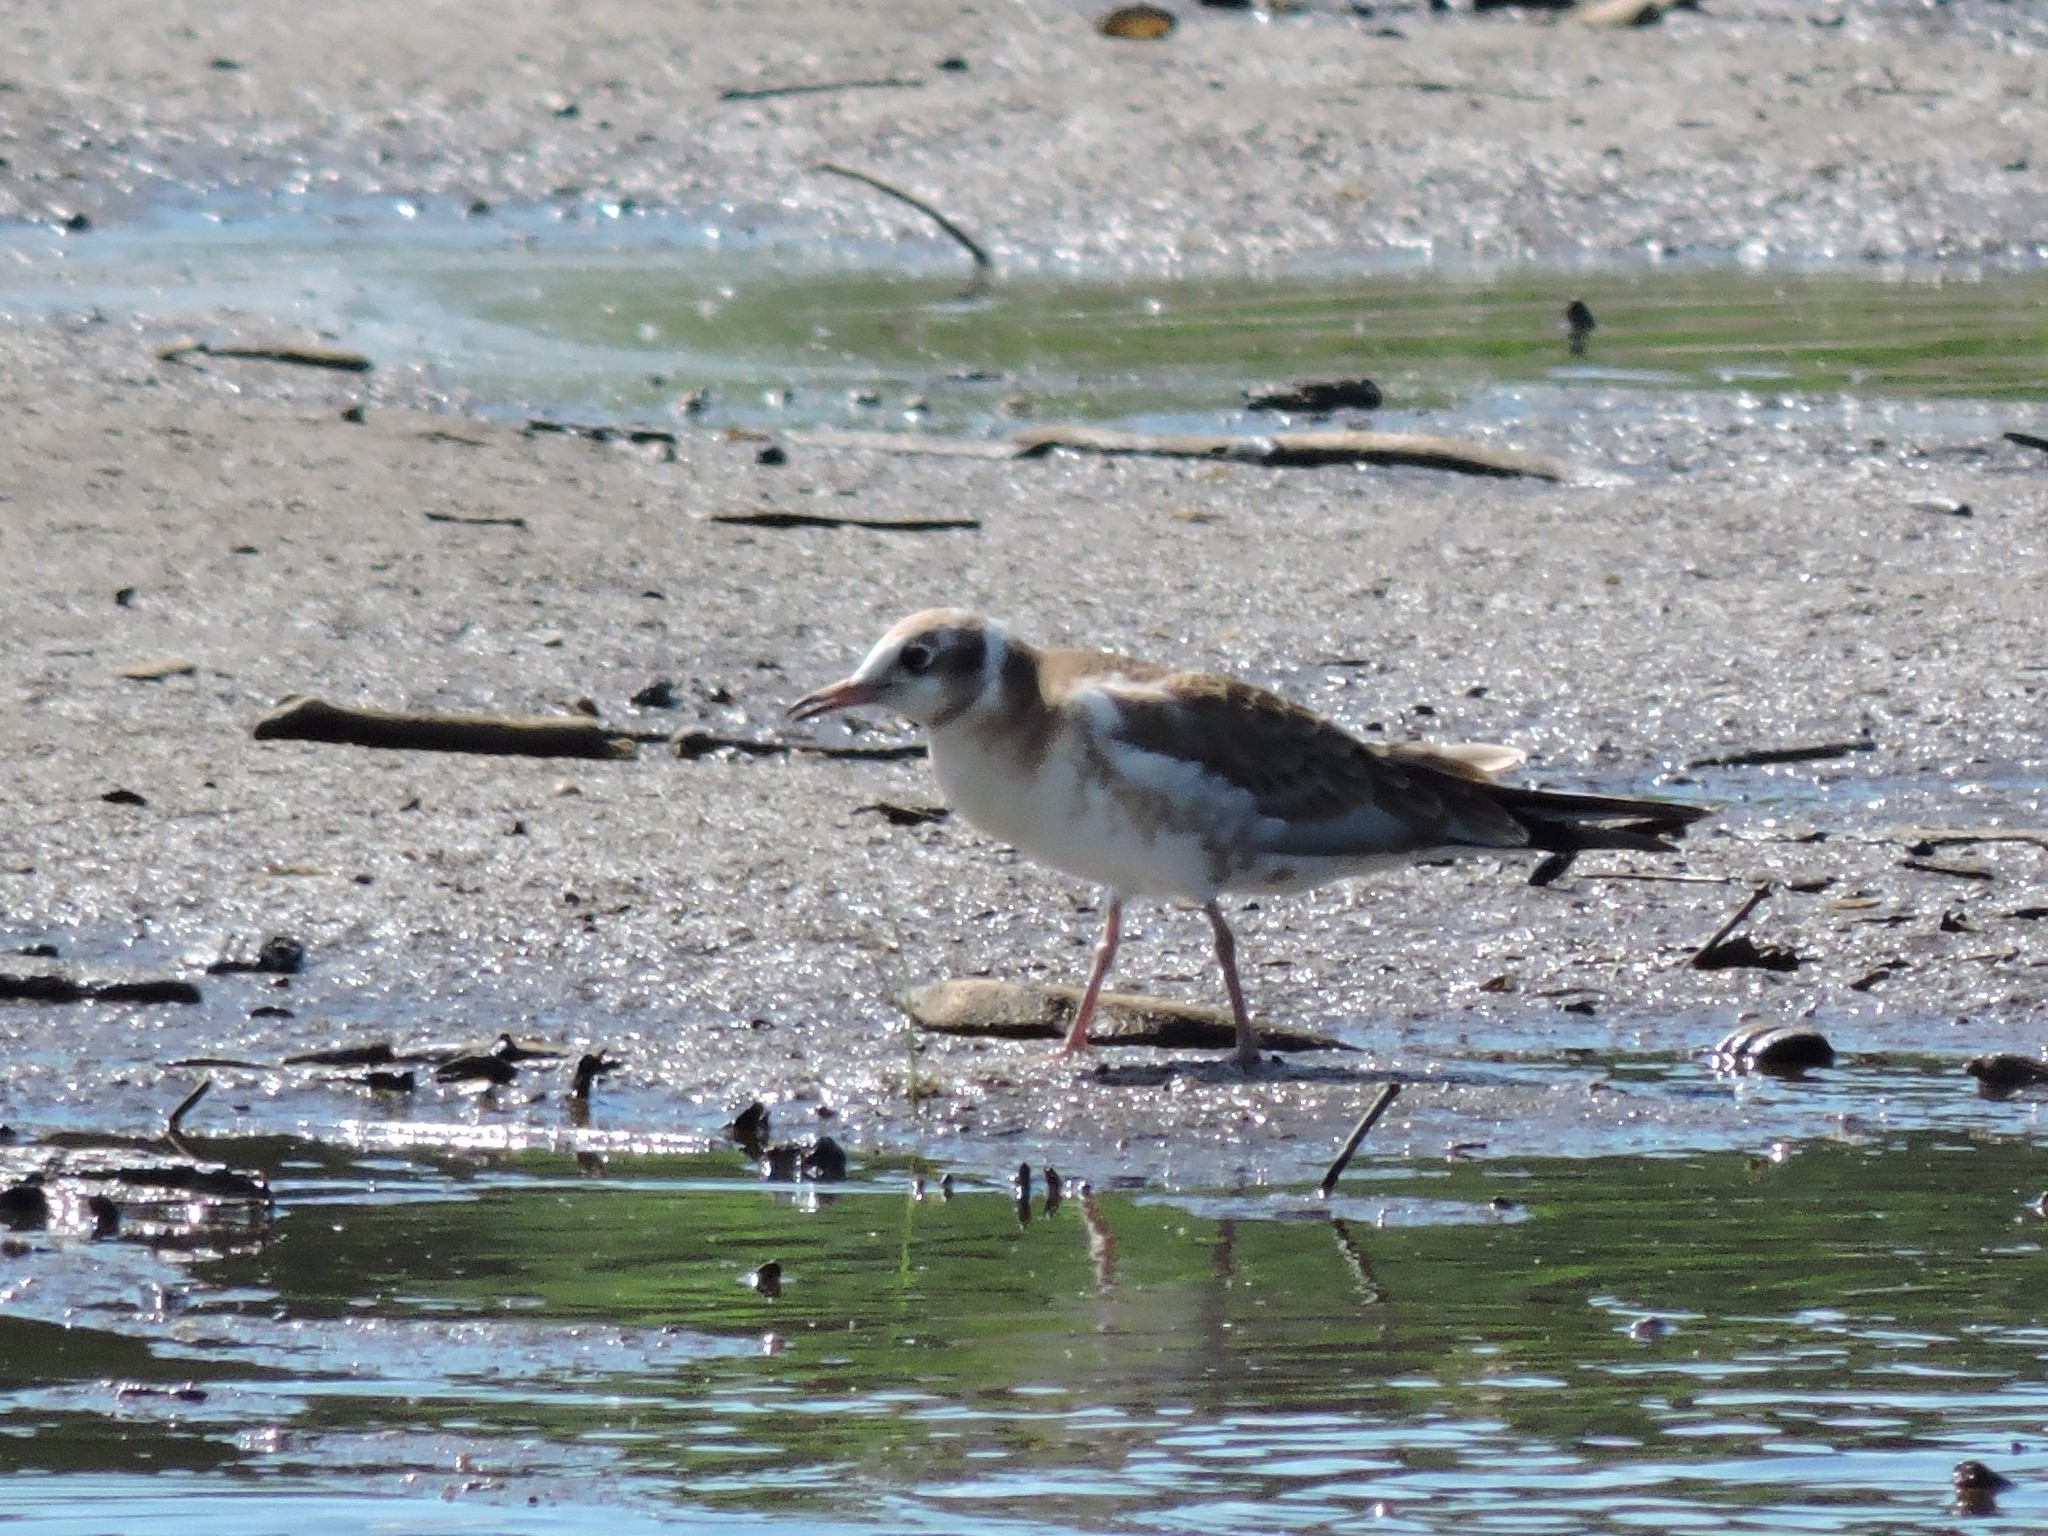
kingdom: Animalia
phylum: Chordata
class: Aves
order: Charadriiformes
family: Laridae
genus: Chroicocephalus
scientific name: Chroicocephalus ridibundus
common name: Black-headed gull
